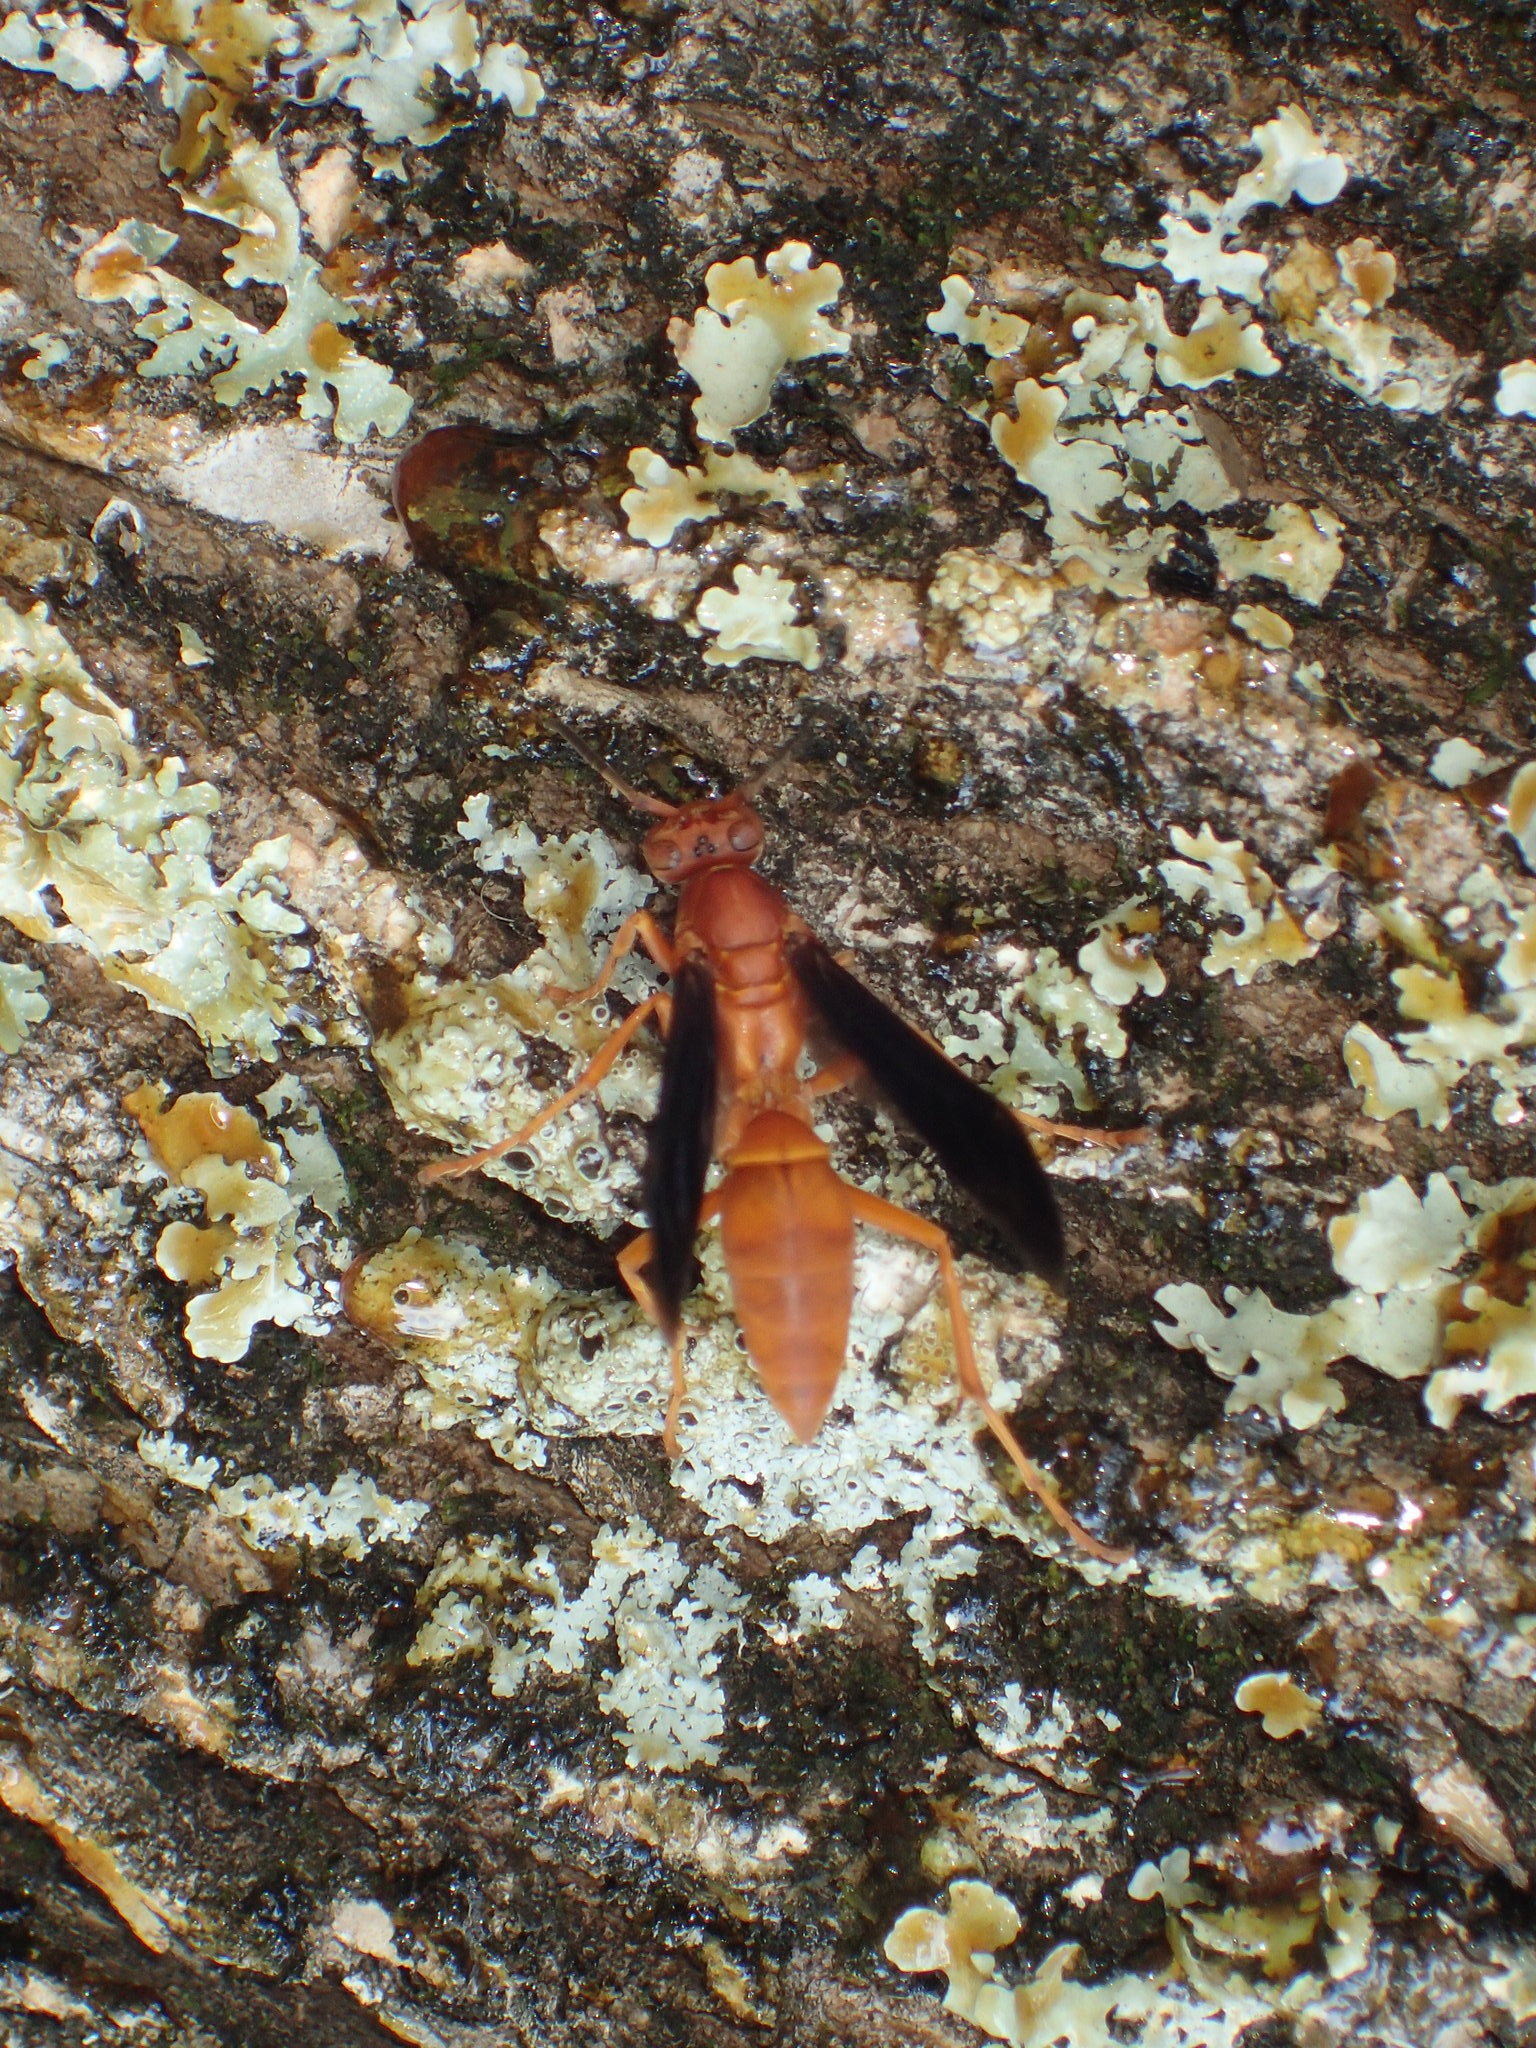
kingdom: Animalia
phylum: Arthropoda
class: Insecta
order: Hymenoptera
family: Eumenidae
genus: Polistes
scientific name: Polistes
